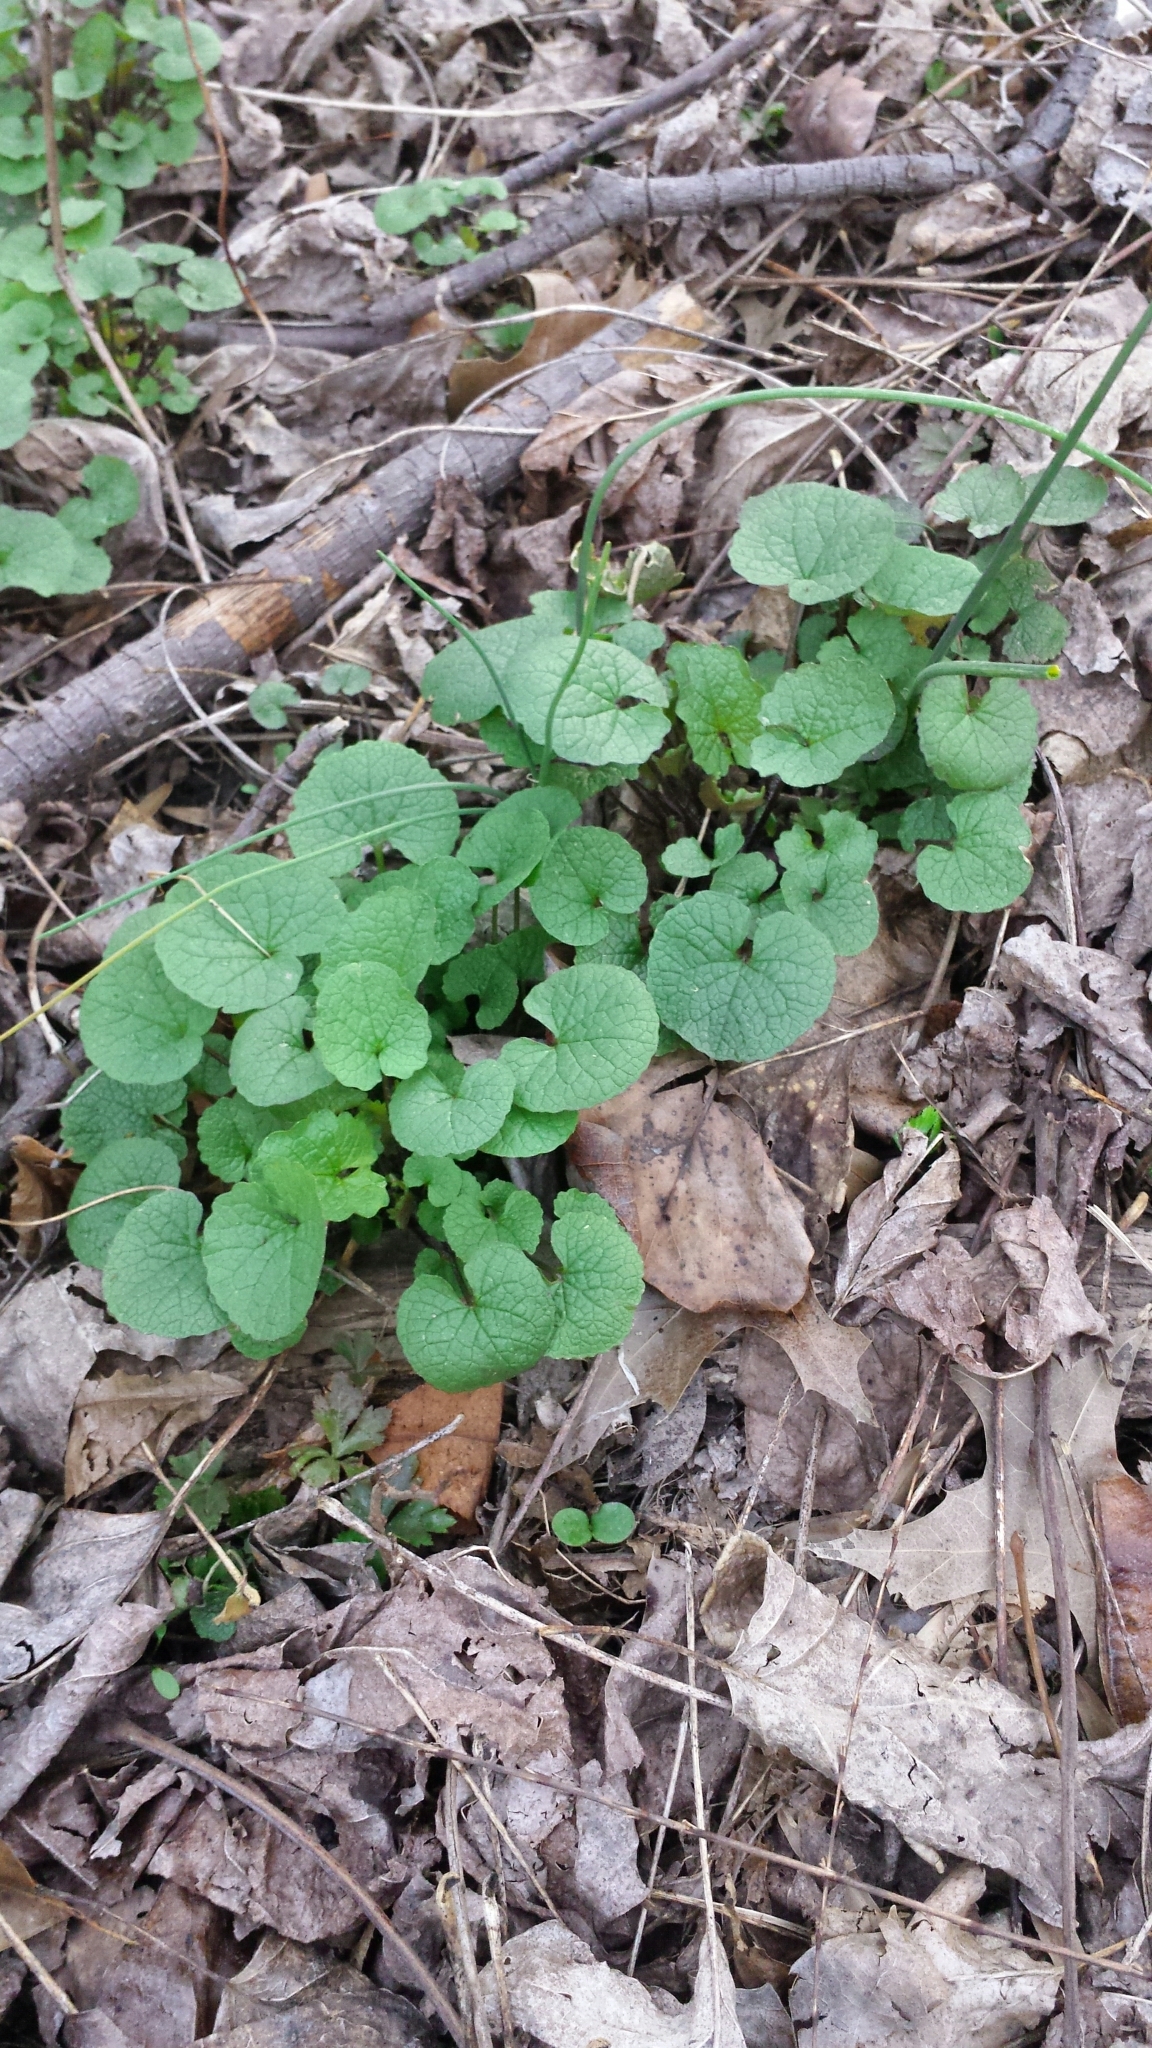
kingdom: Plantae
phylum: Tracheophyta
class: Magnoliopsida
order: Brassicales
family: Brassicaceae
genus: Alliaria
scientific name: Alliaria petiolata
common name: Garlic mustard
